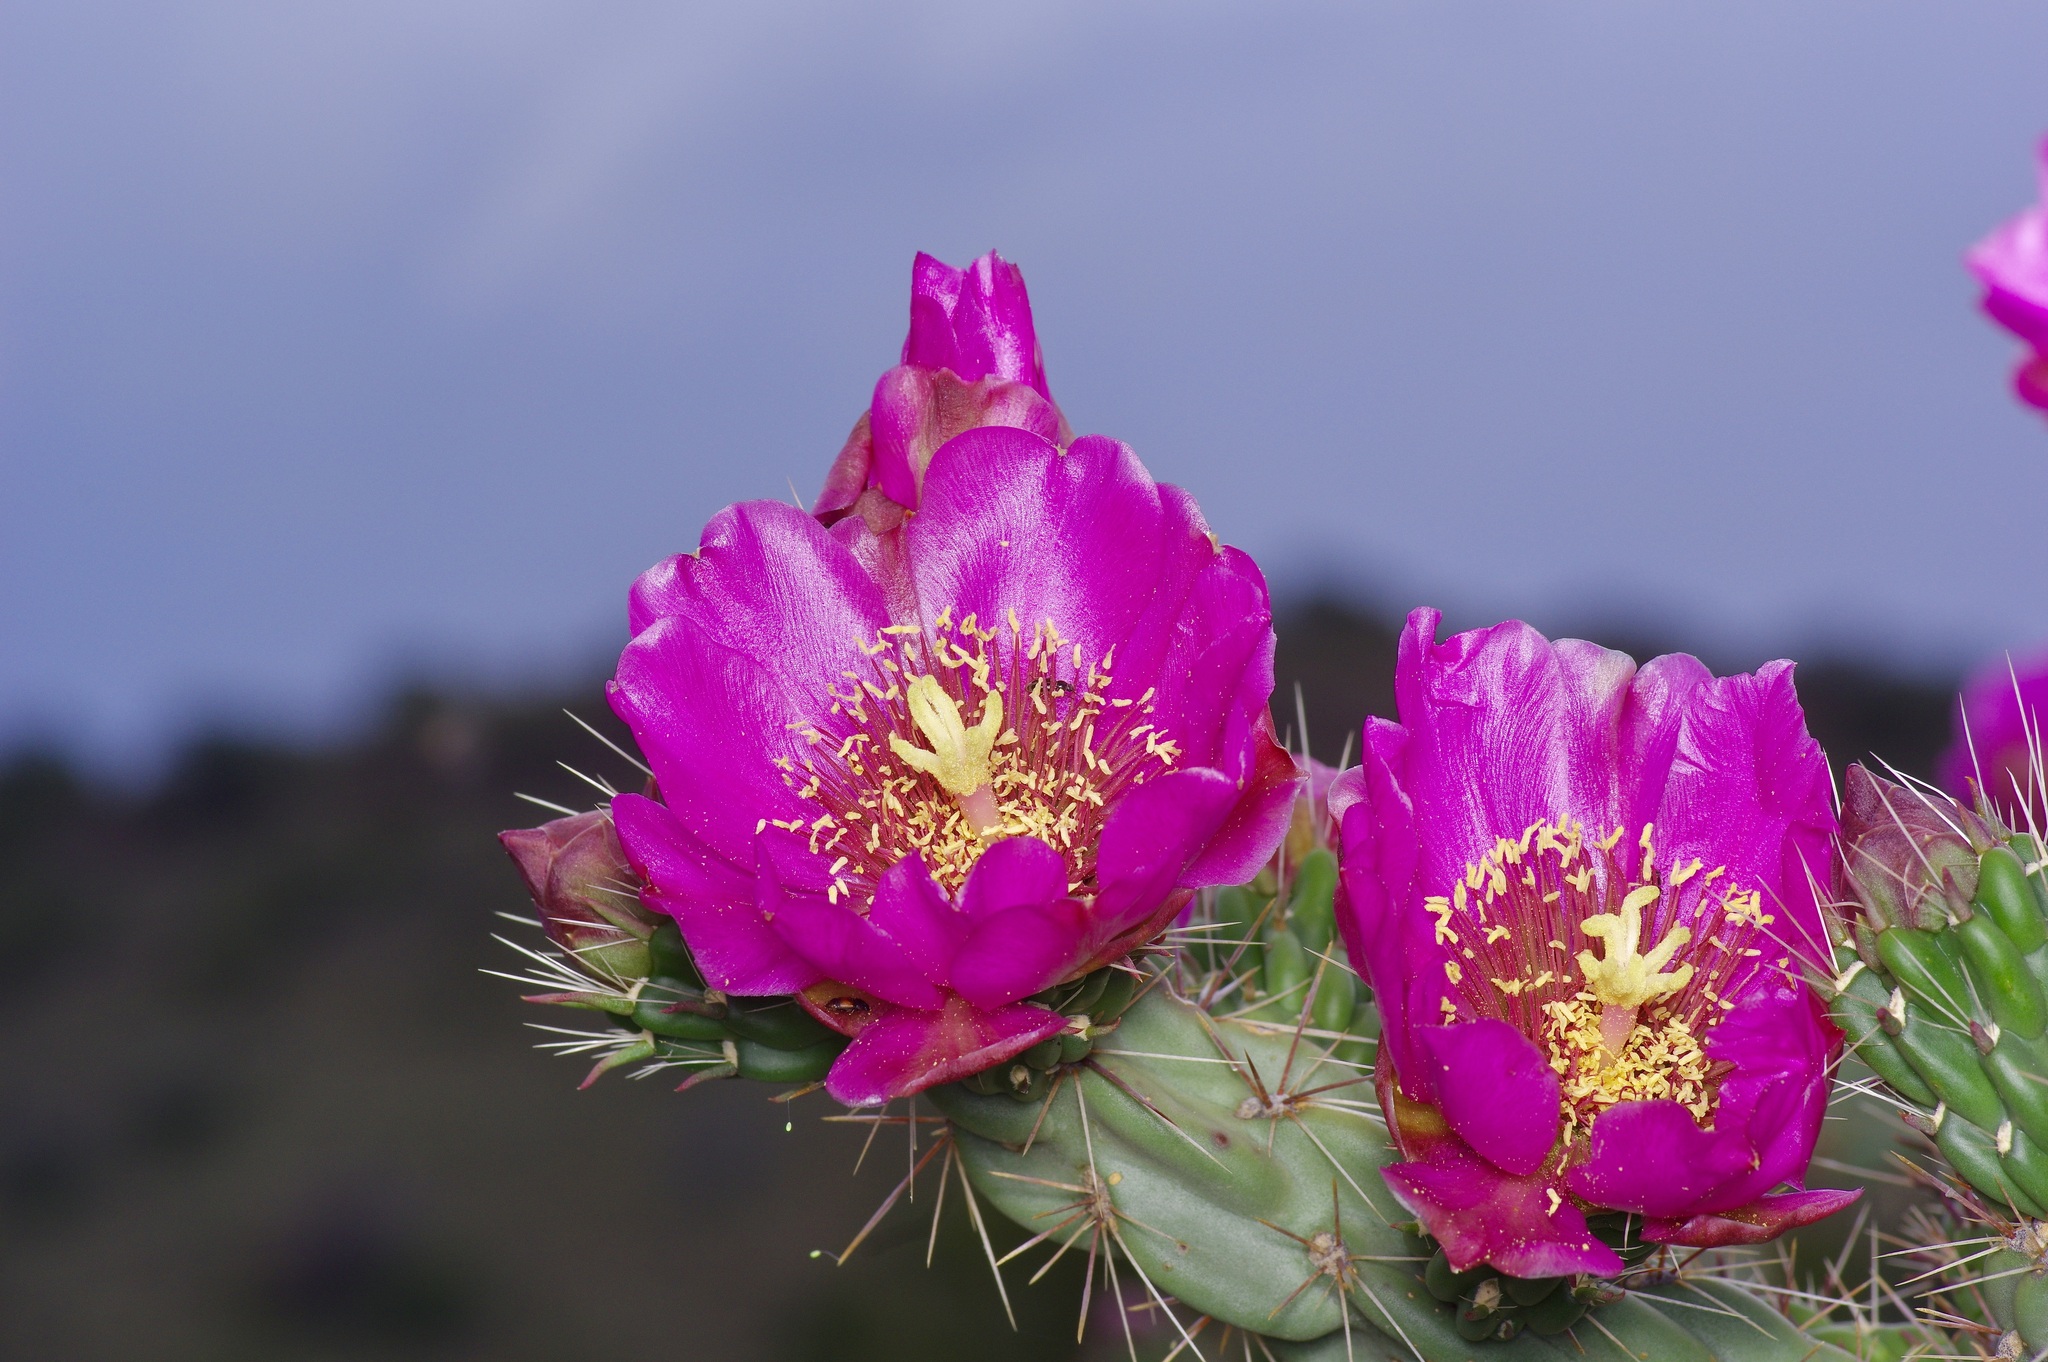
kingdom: Plantae
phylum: Tracheophyta
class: Magnoliopsida
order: Caryophyllales
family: Cactaceae
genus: Cylindropuntia
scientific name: Cylindropuntia imbricata
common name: Candelabrum cactus
